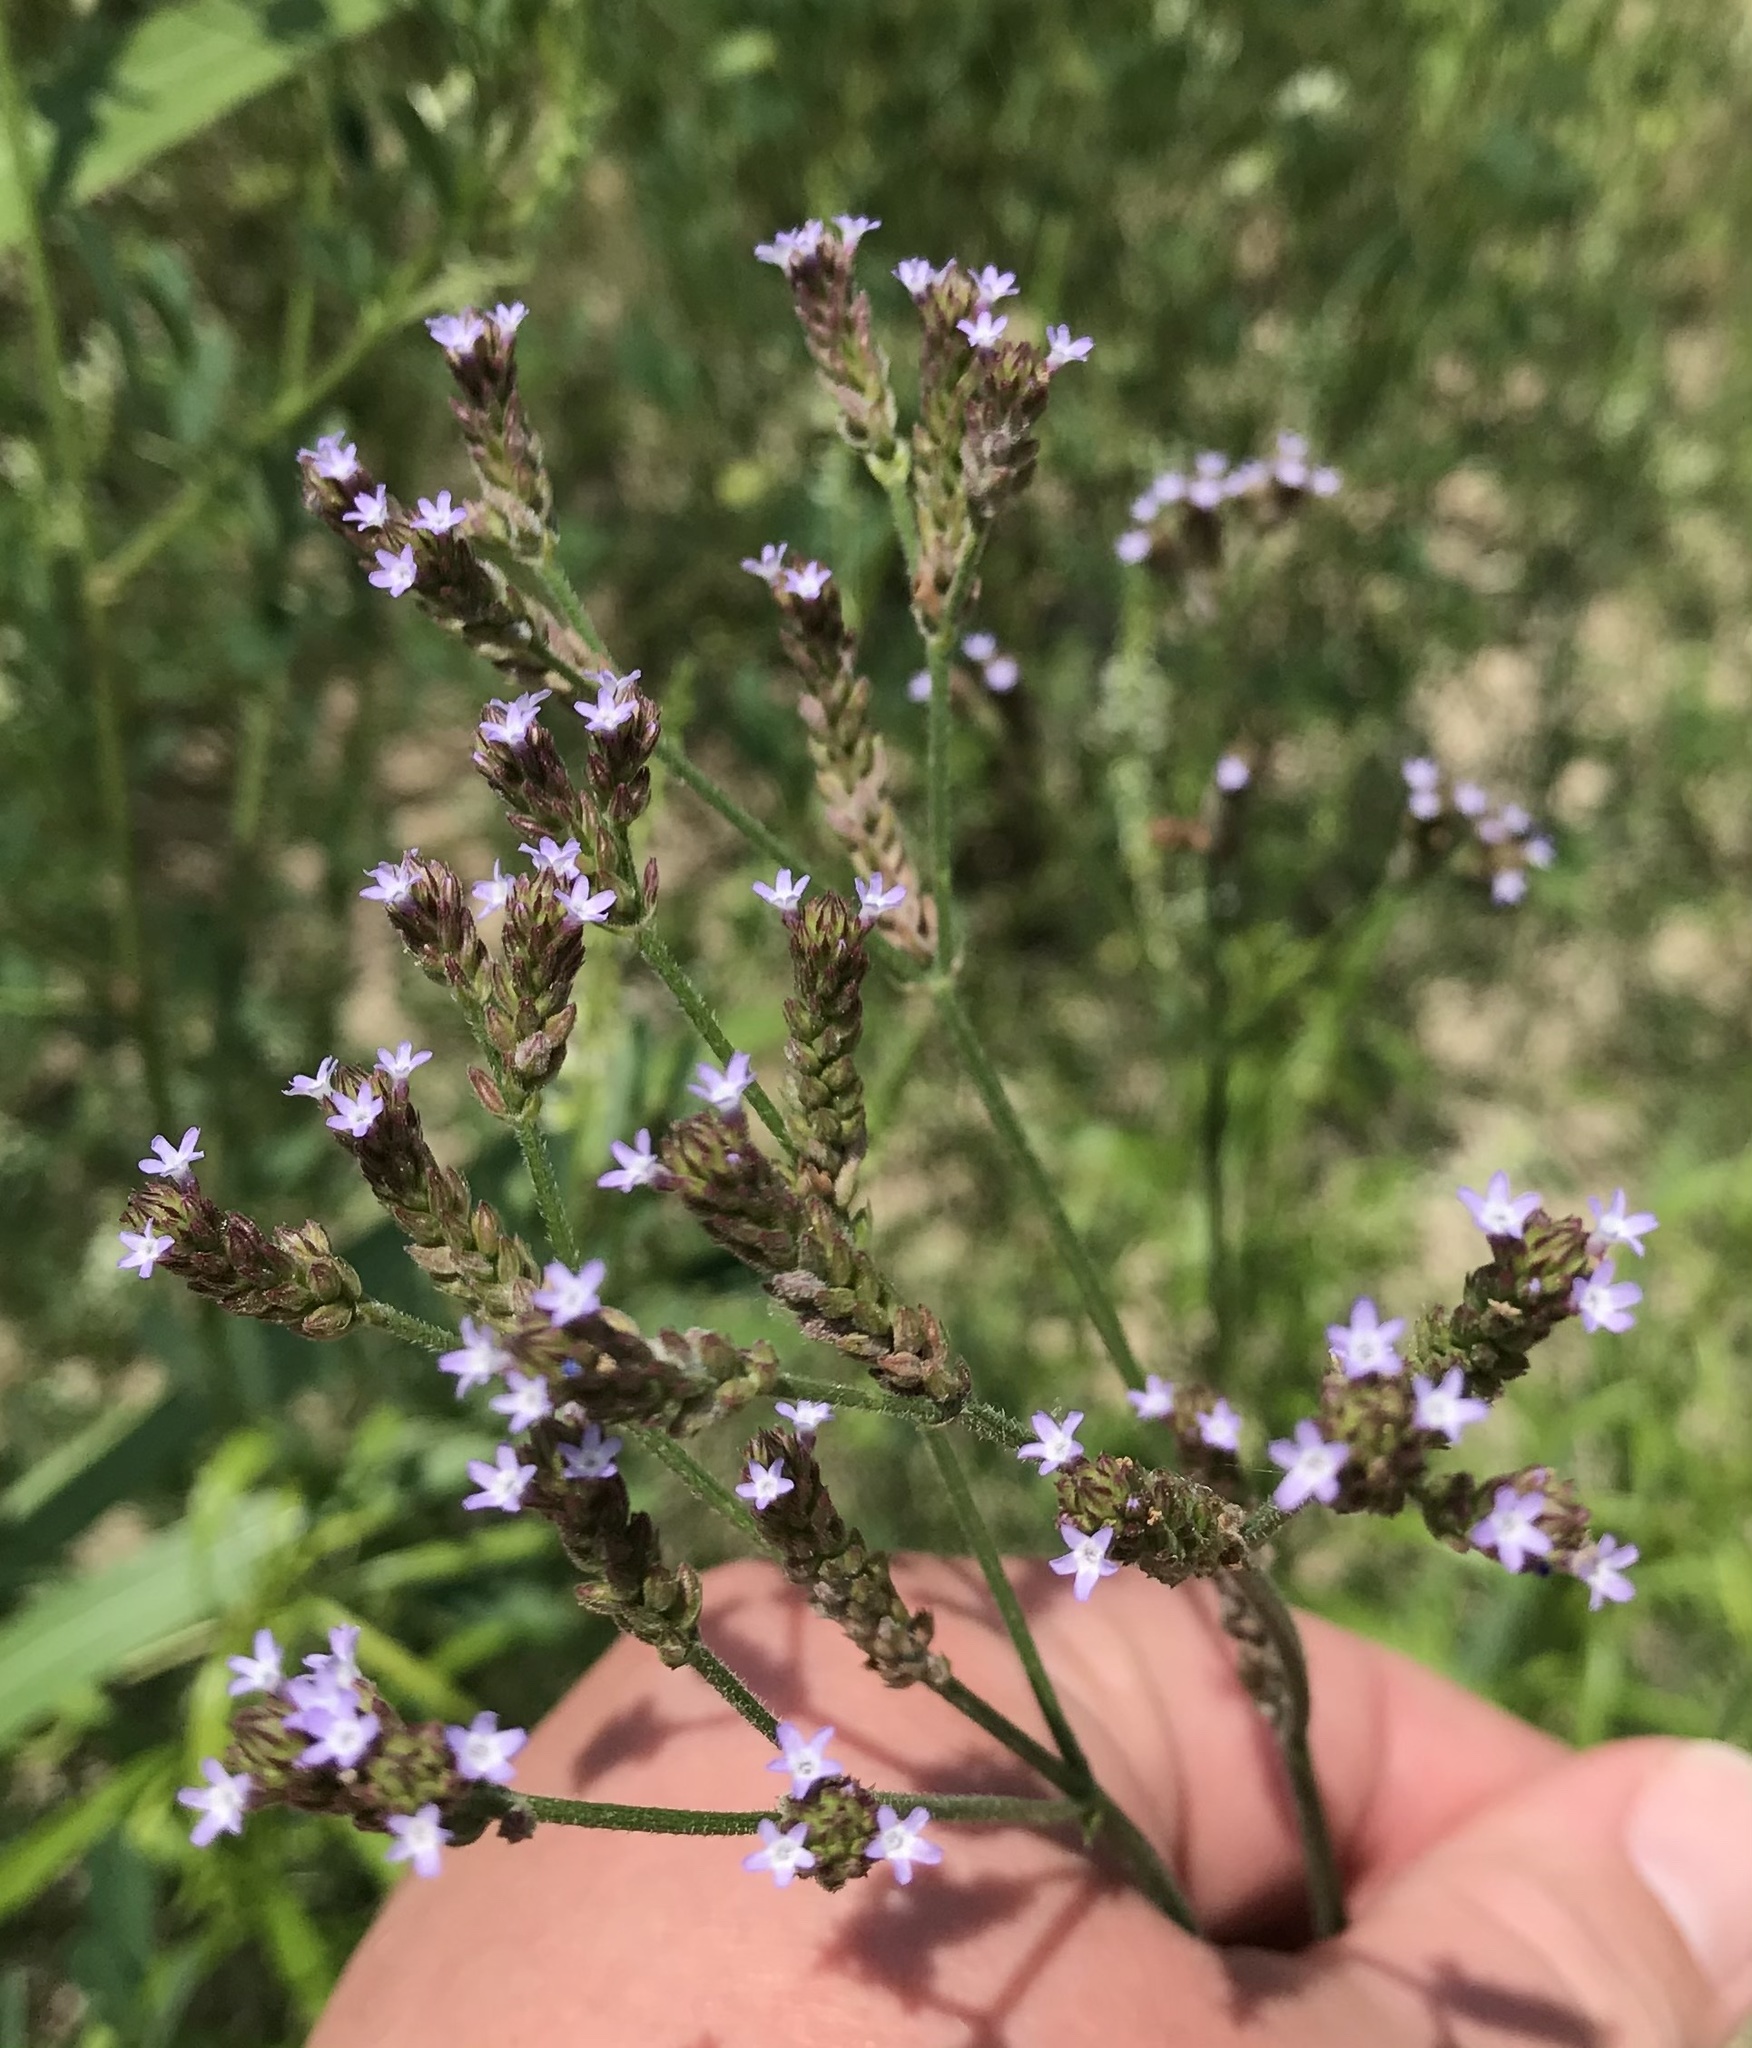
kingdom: Plantae
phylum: Tracheophyta
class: Magnoliopsida
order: Lamiales
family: Verbenaceae
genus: Verbena
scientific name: Verbena brasiliensis
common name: Brazilian vervain
